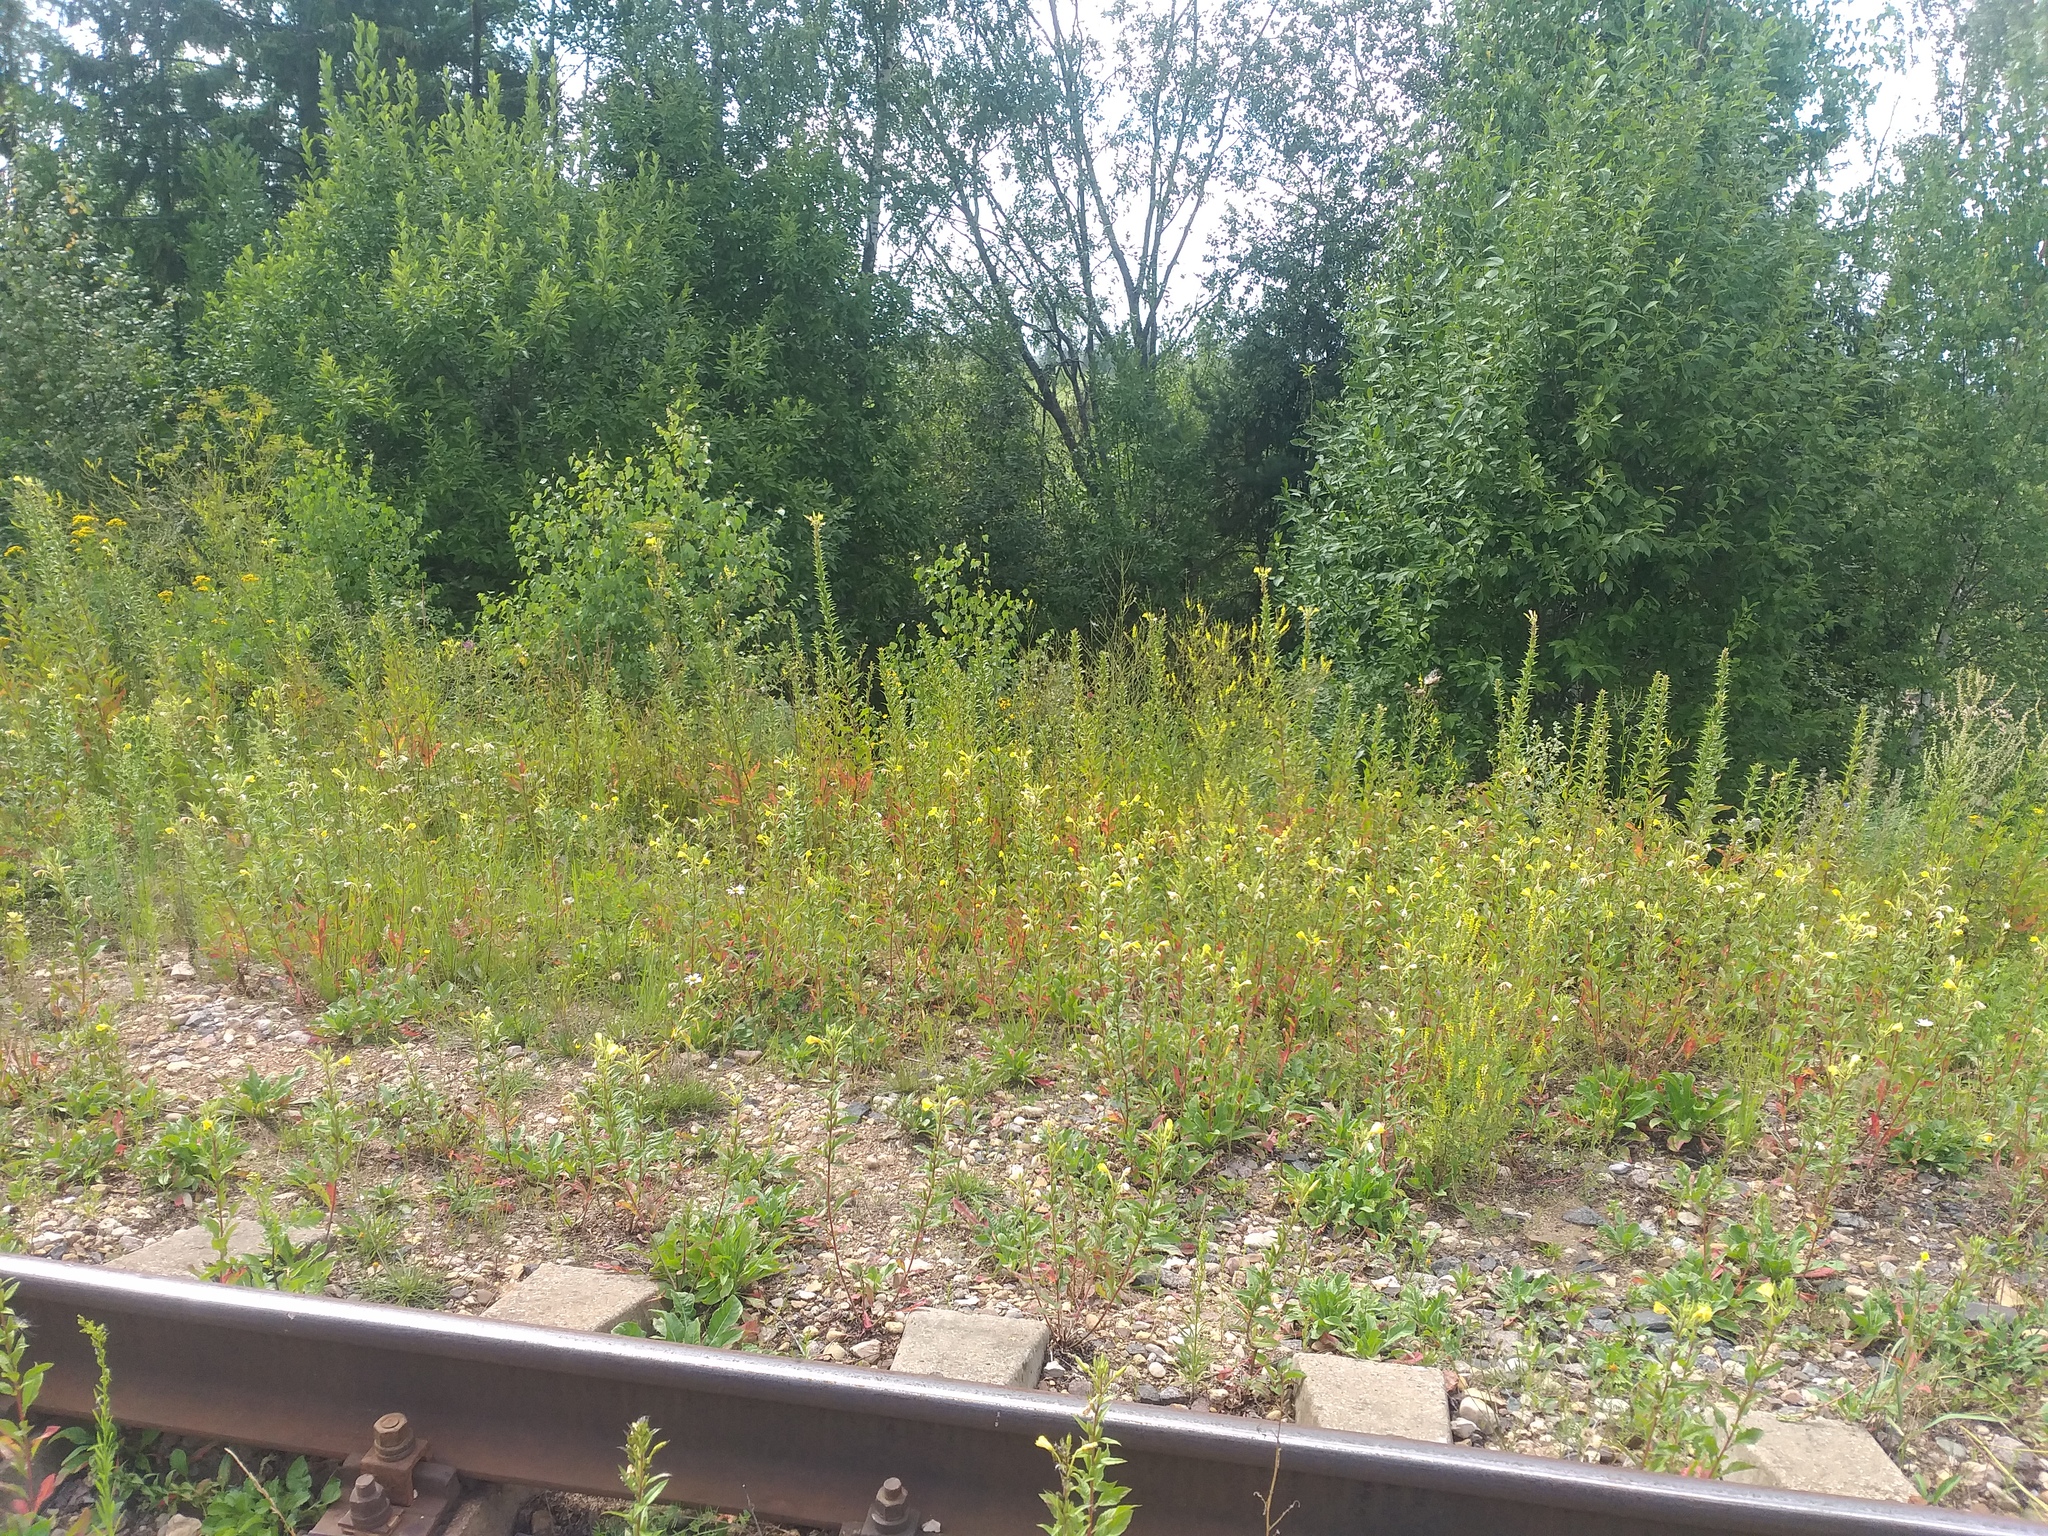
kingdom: Plantae
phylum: Tracheophyta
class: Magnoliopsida
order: Myrtales
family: Onagraceae
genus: Oenothera
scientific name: Oenothera rubricaulis
